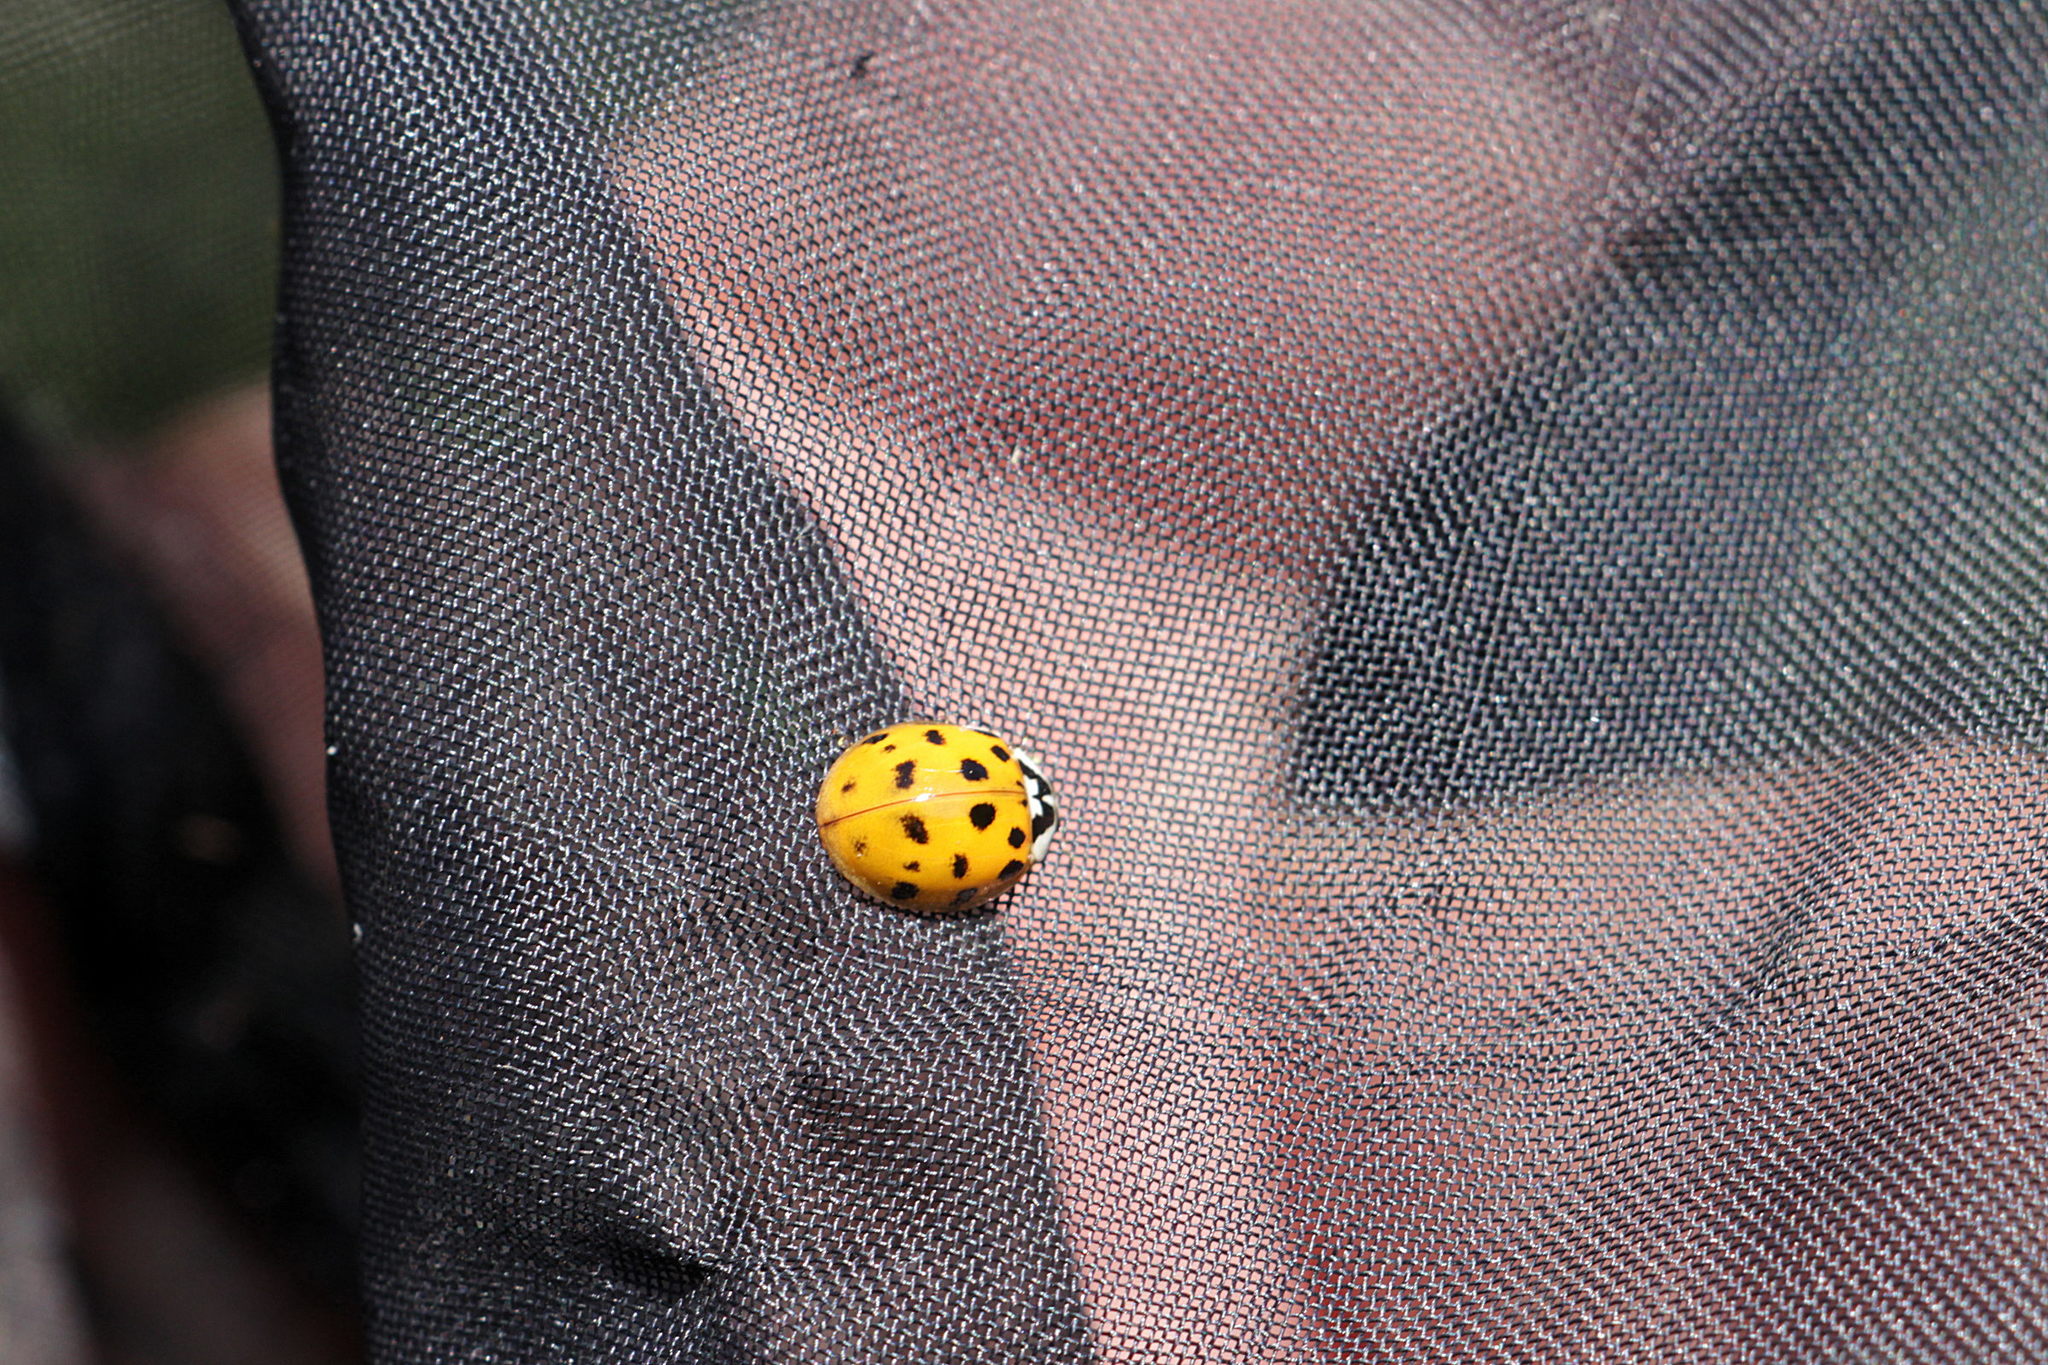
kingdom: Animalia
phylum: Arthropoda
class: Insecta
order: Coleoptera
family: Coccinellidae
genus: Harmonia
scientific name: Harmonia axyridis
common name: Harlequin ladybird
